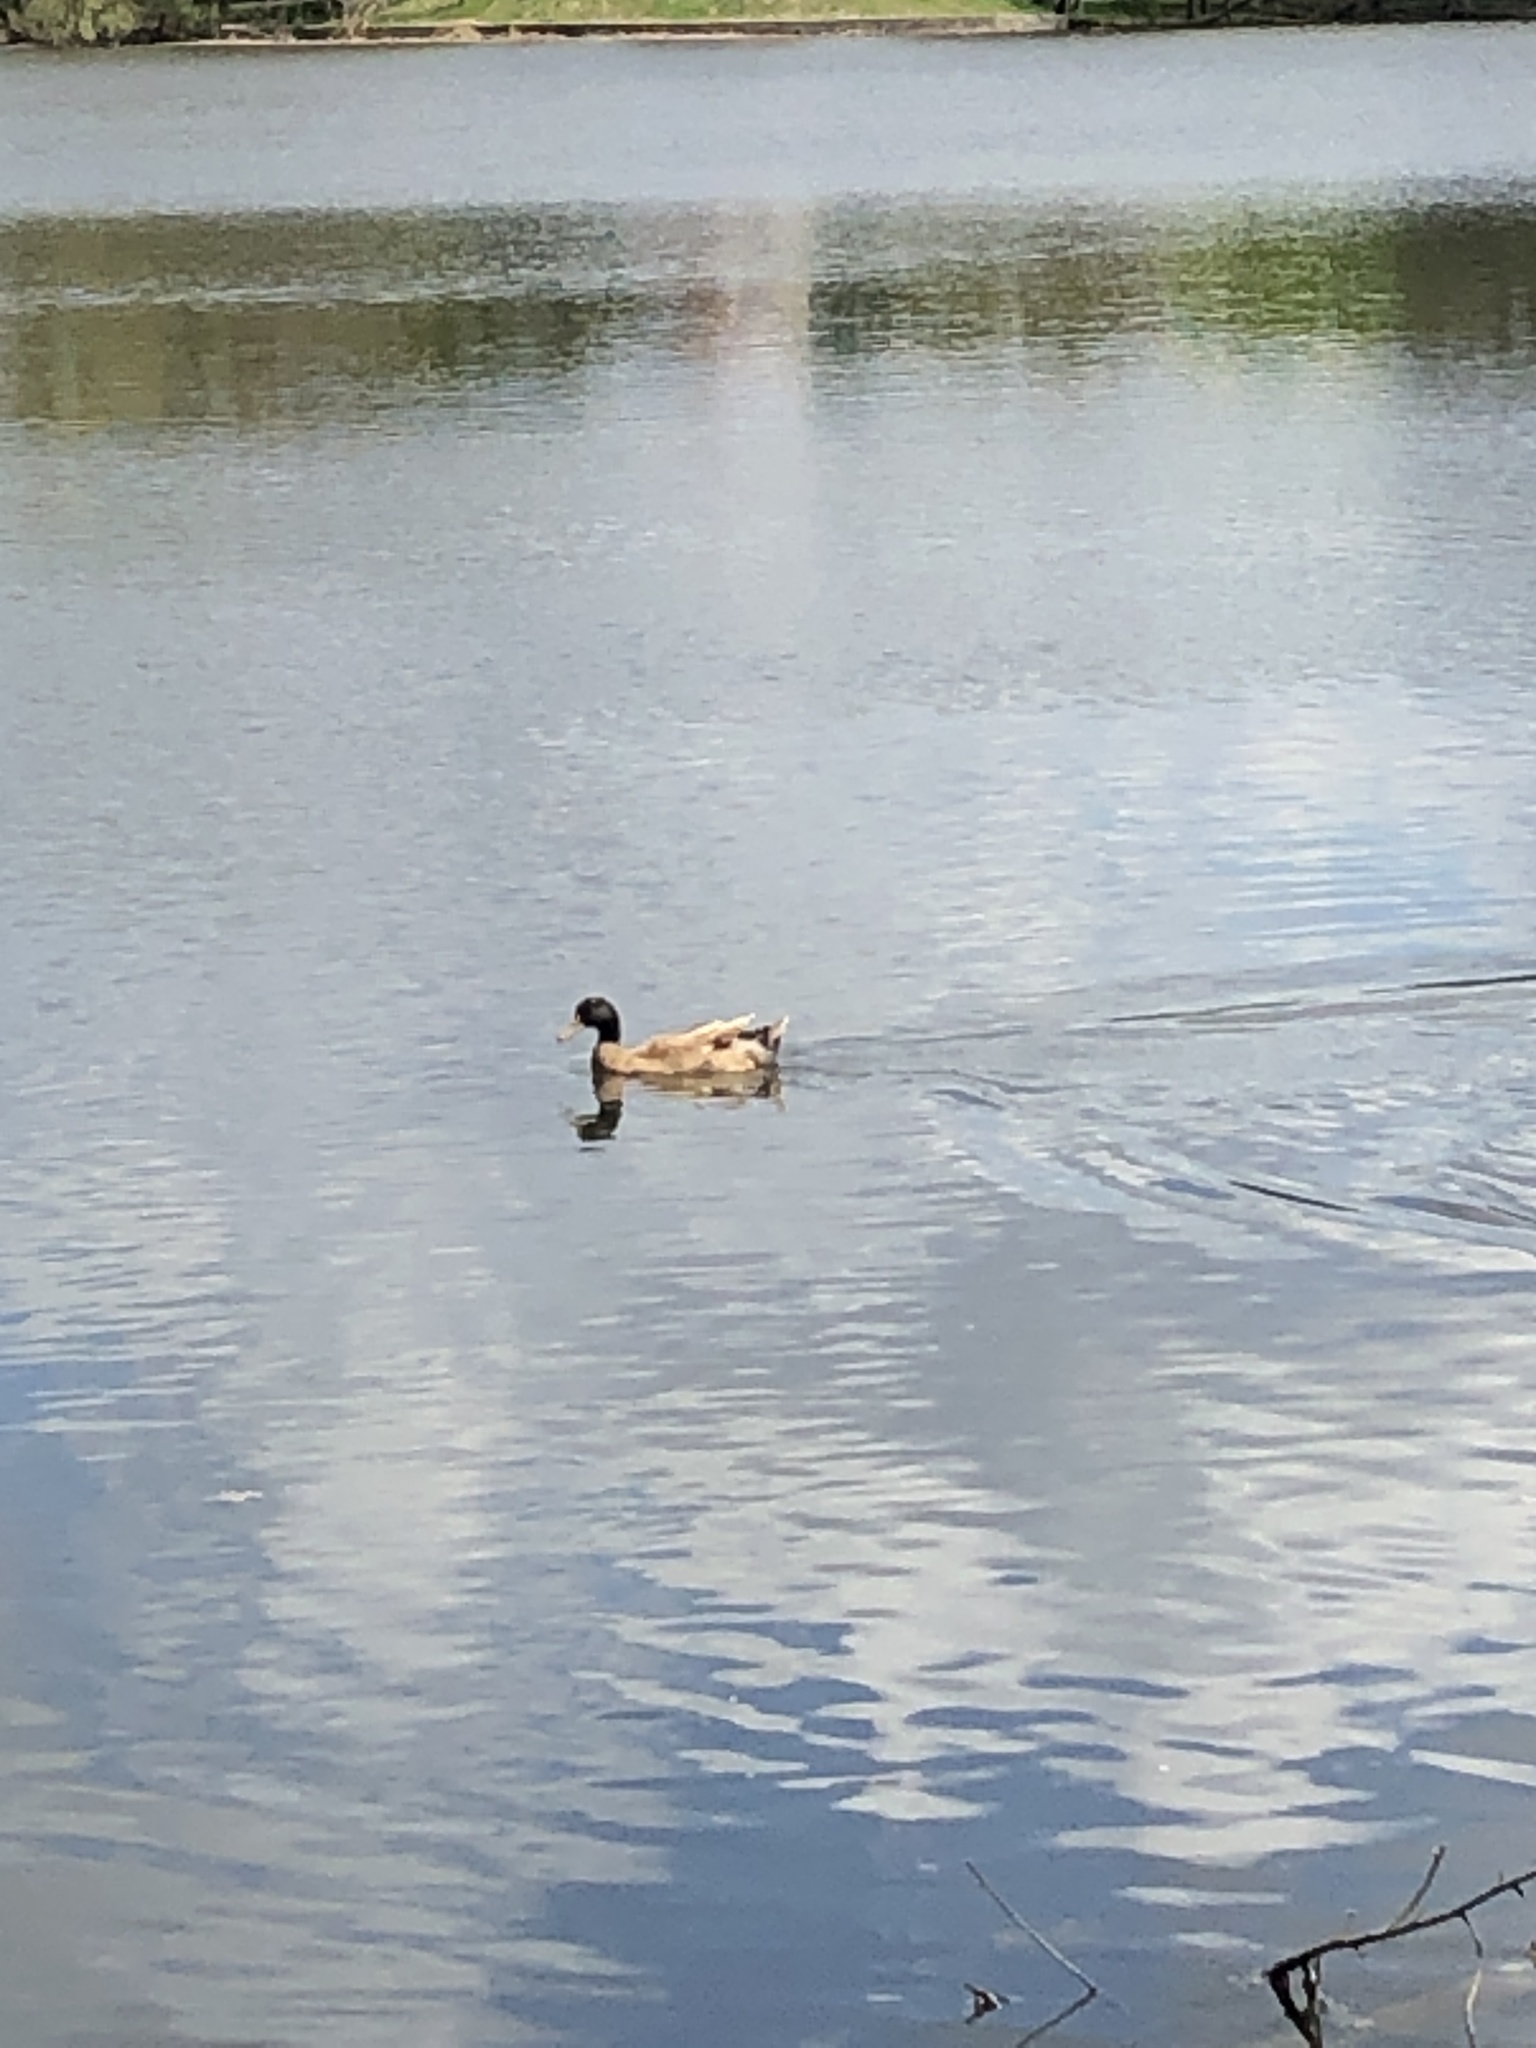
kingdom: Animalia
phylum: Chordata
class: Aves
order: Anseriformes
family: Anatidae
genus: Anas
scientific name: Anas platyrhynchos
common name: Mallard
